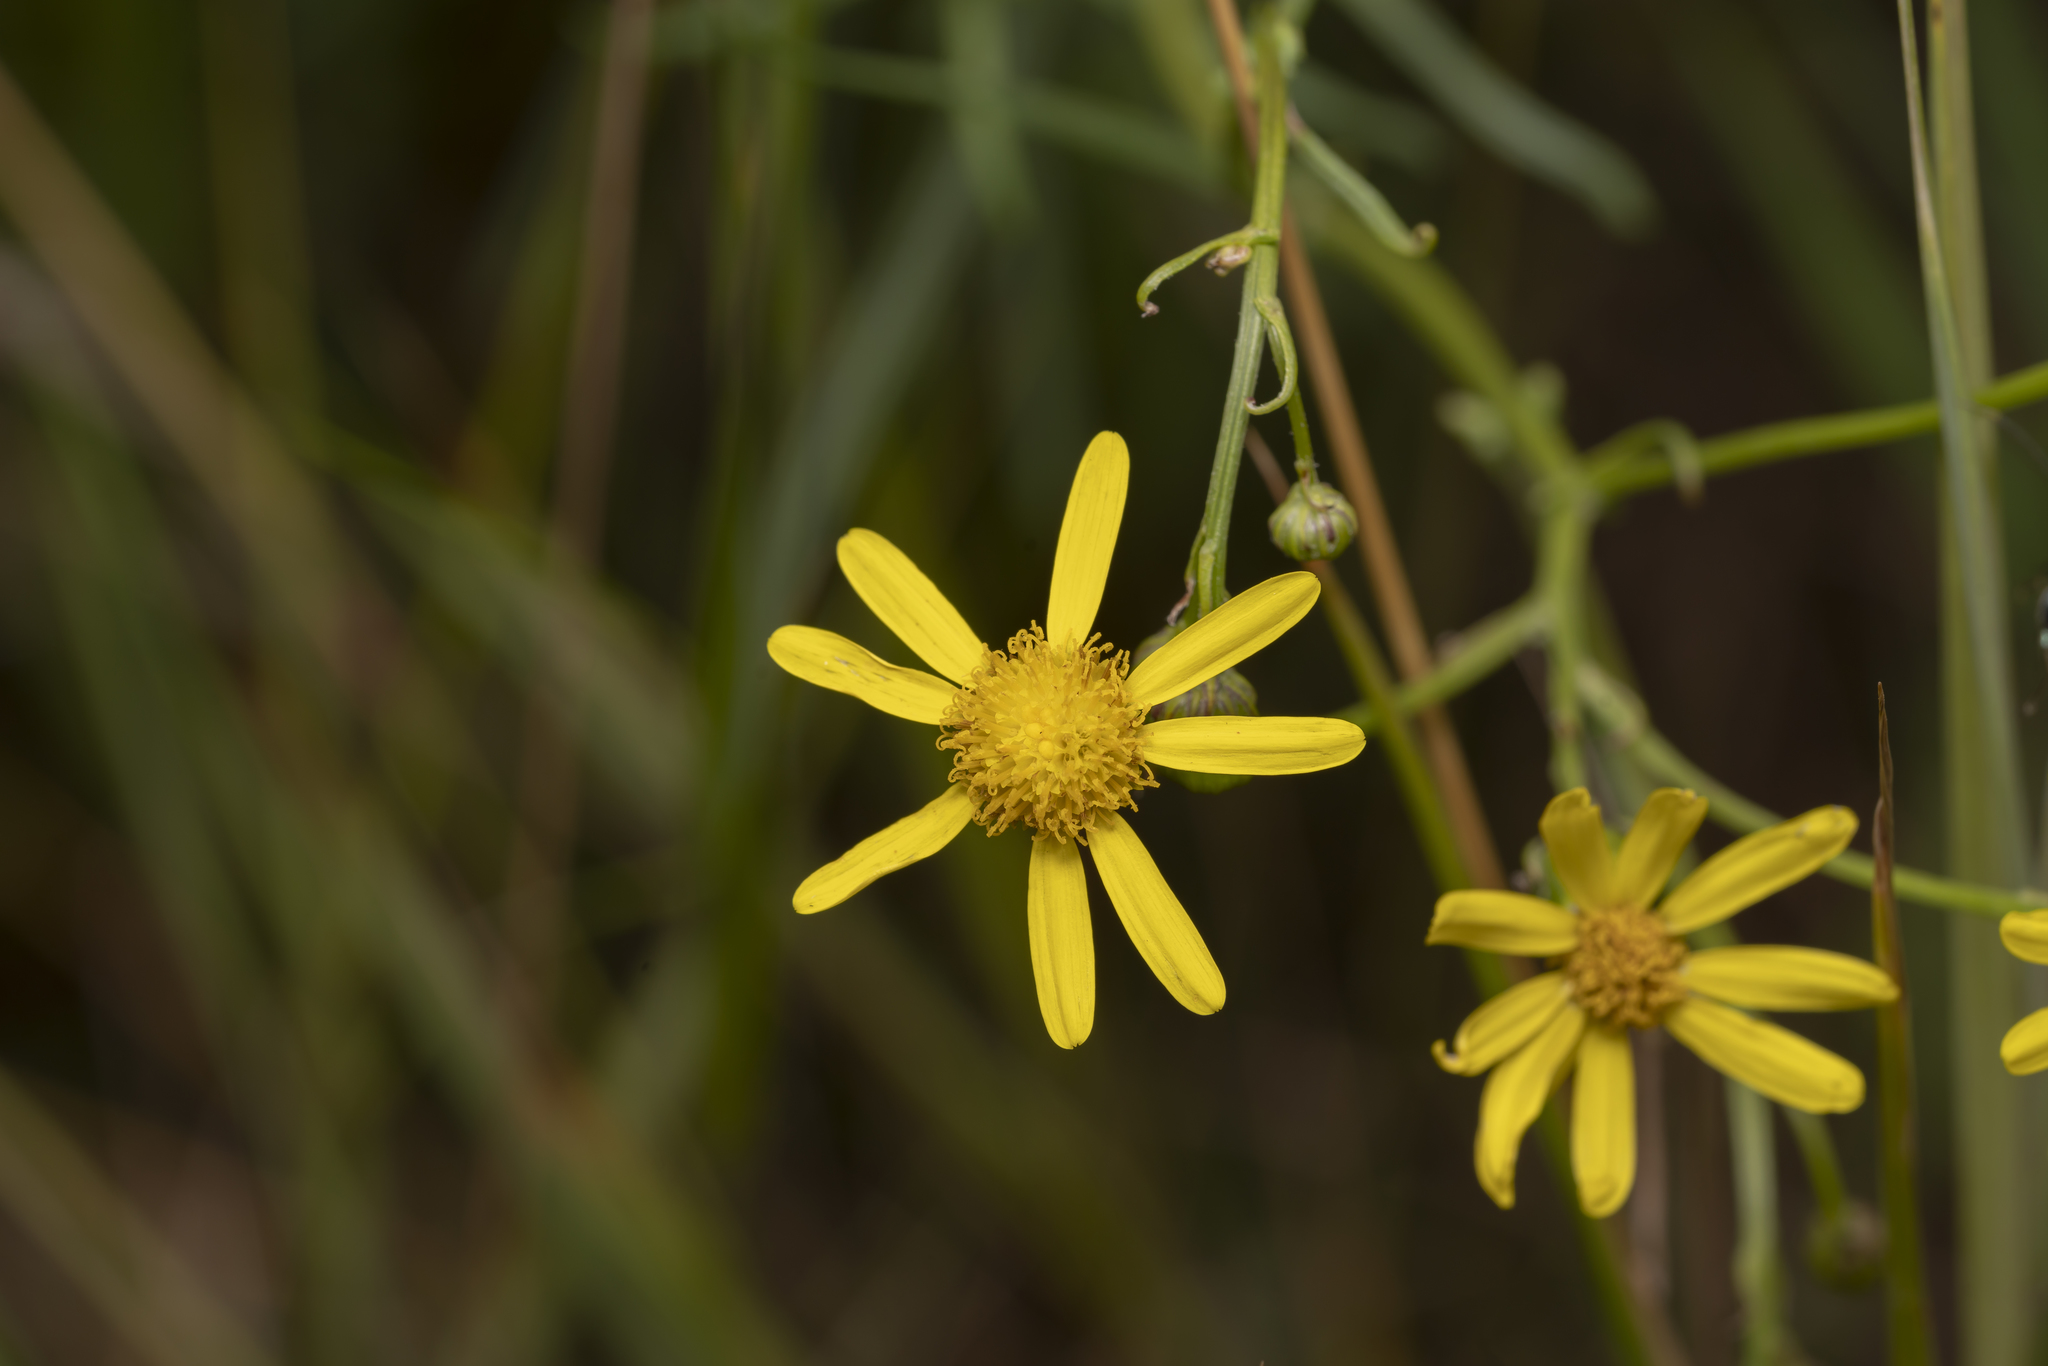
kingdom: Plantae
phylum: Tracheophyta
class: Magnoliopsida
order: Asterales
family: Asteraceae
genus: Senecio
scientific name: Senecio inaequidens
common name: Narrow-leaved ragwort
